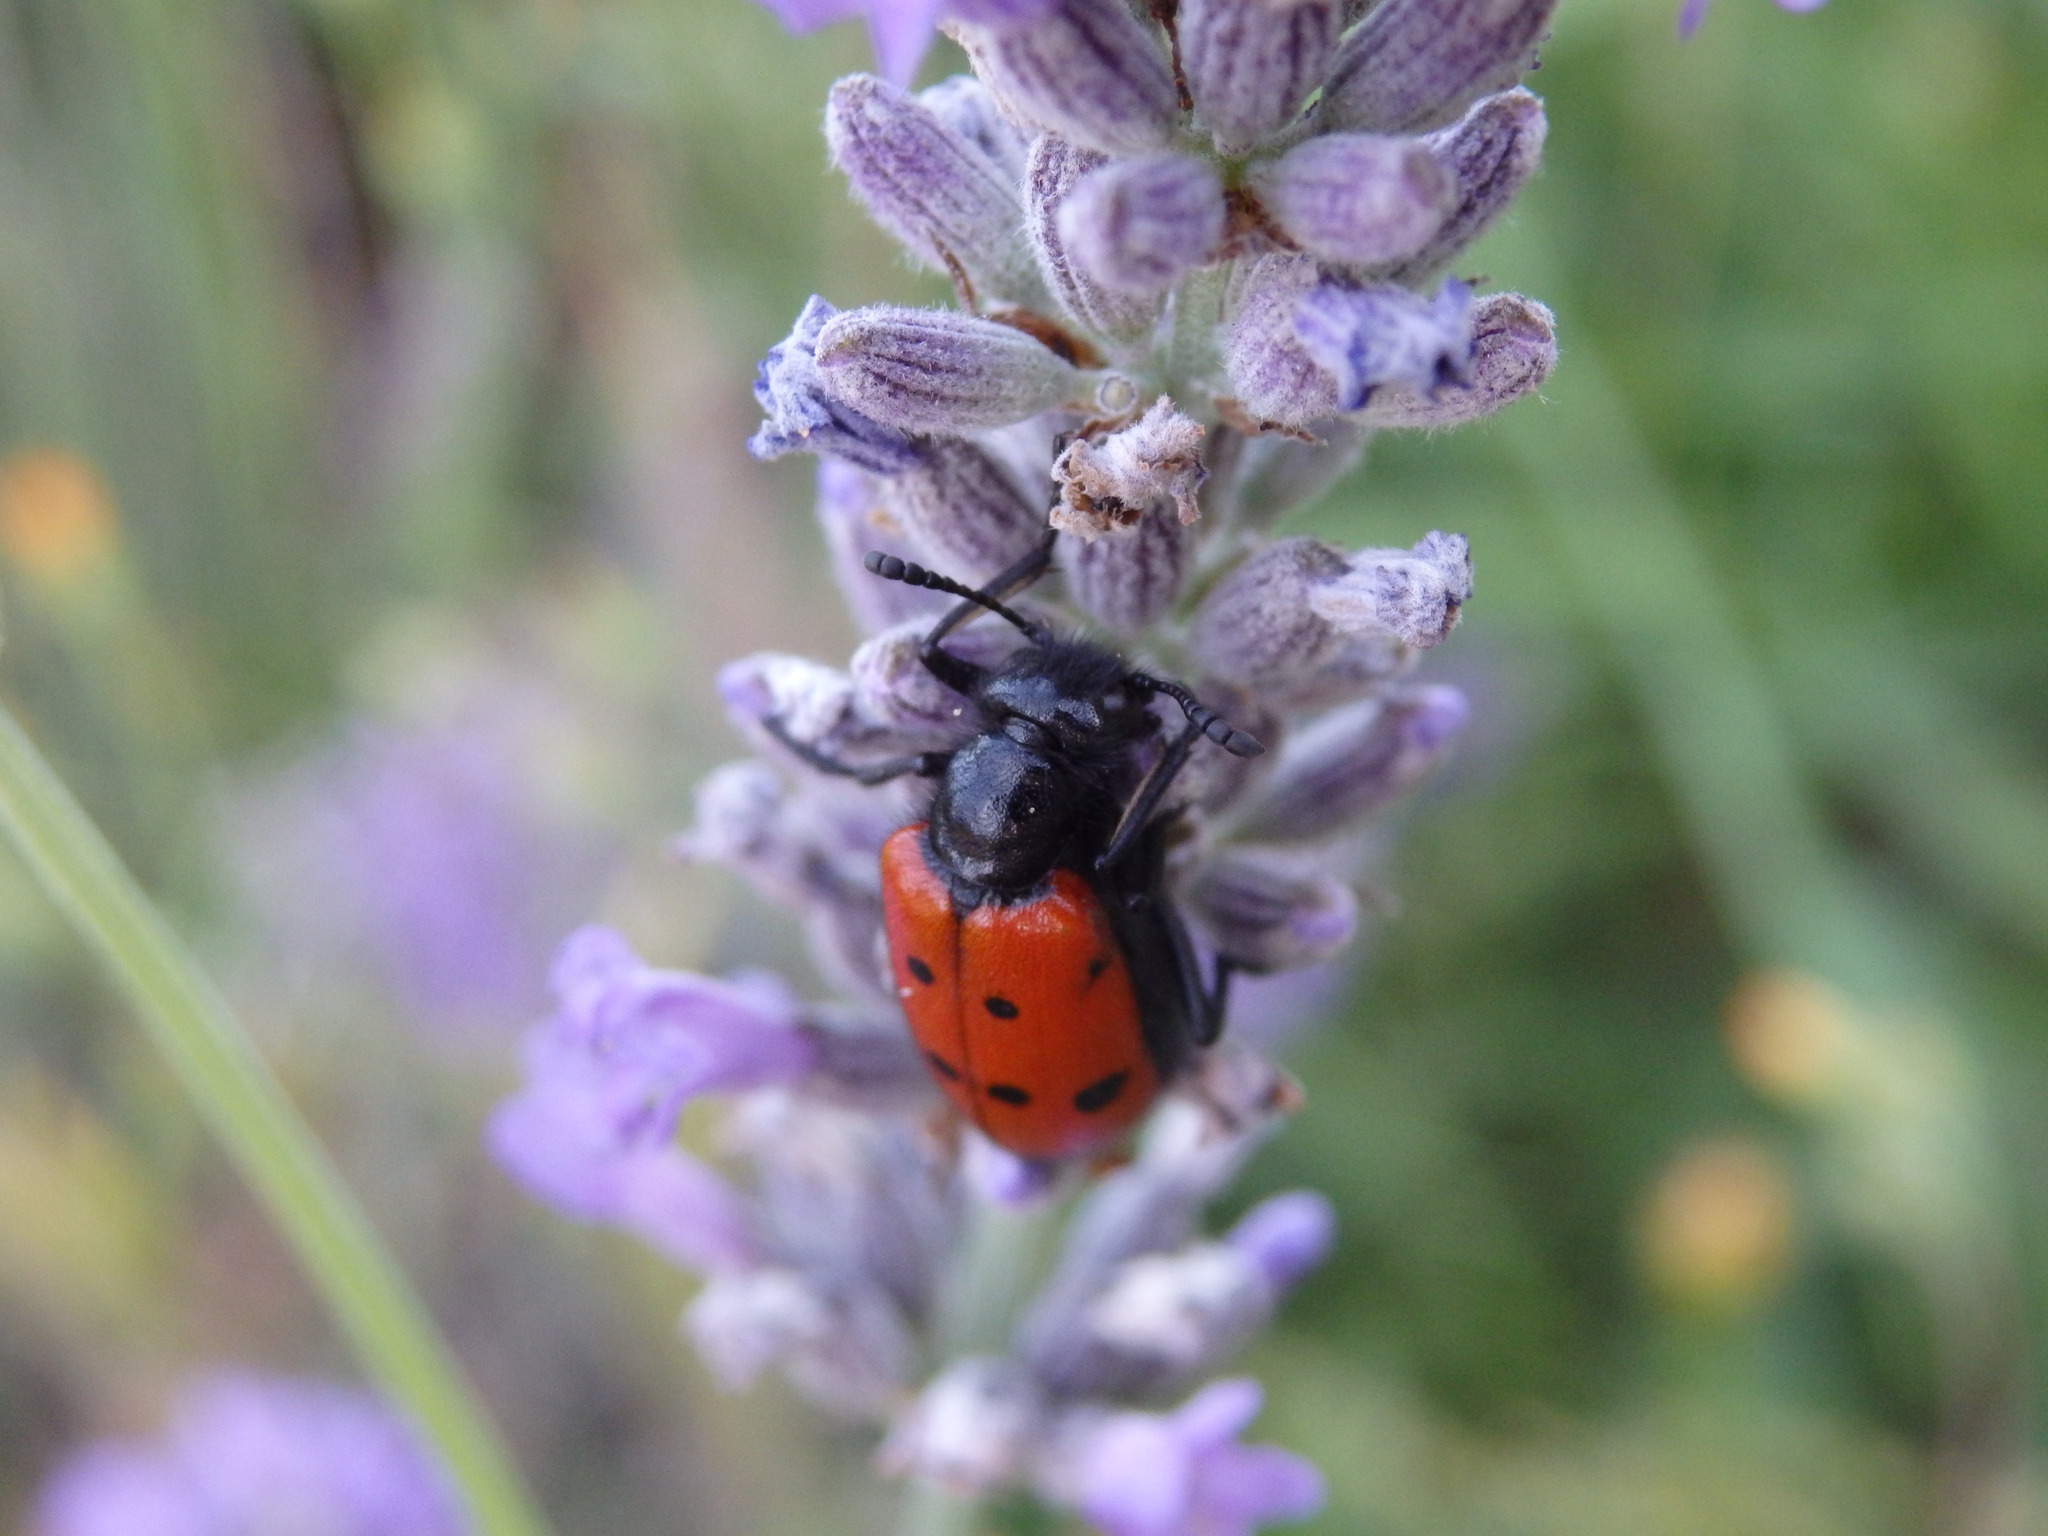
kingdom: Animalia
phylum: Arthropoda
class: Insecta
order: Coleoptera
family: Meloidae
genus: Mylabris
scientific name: Mylabris quadripunctata
